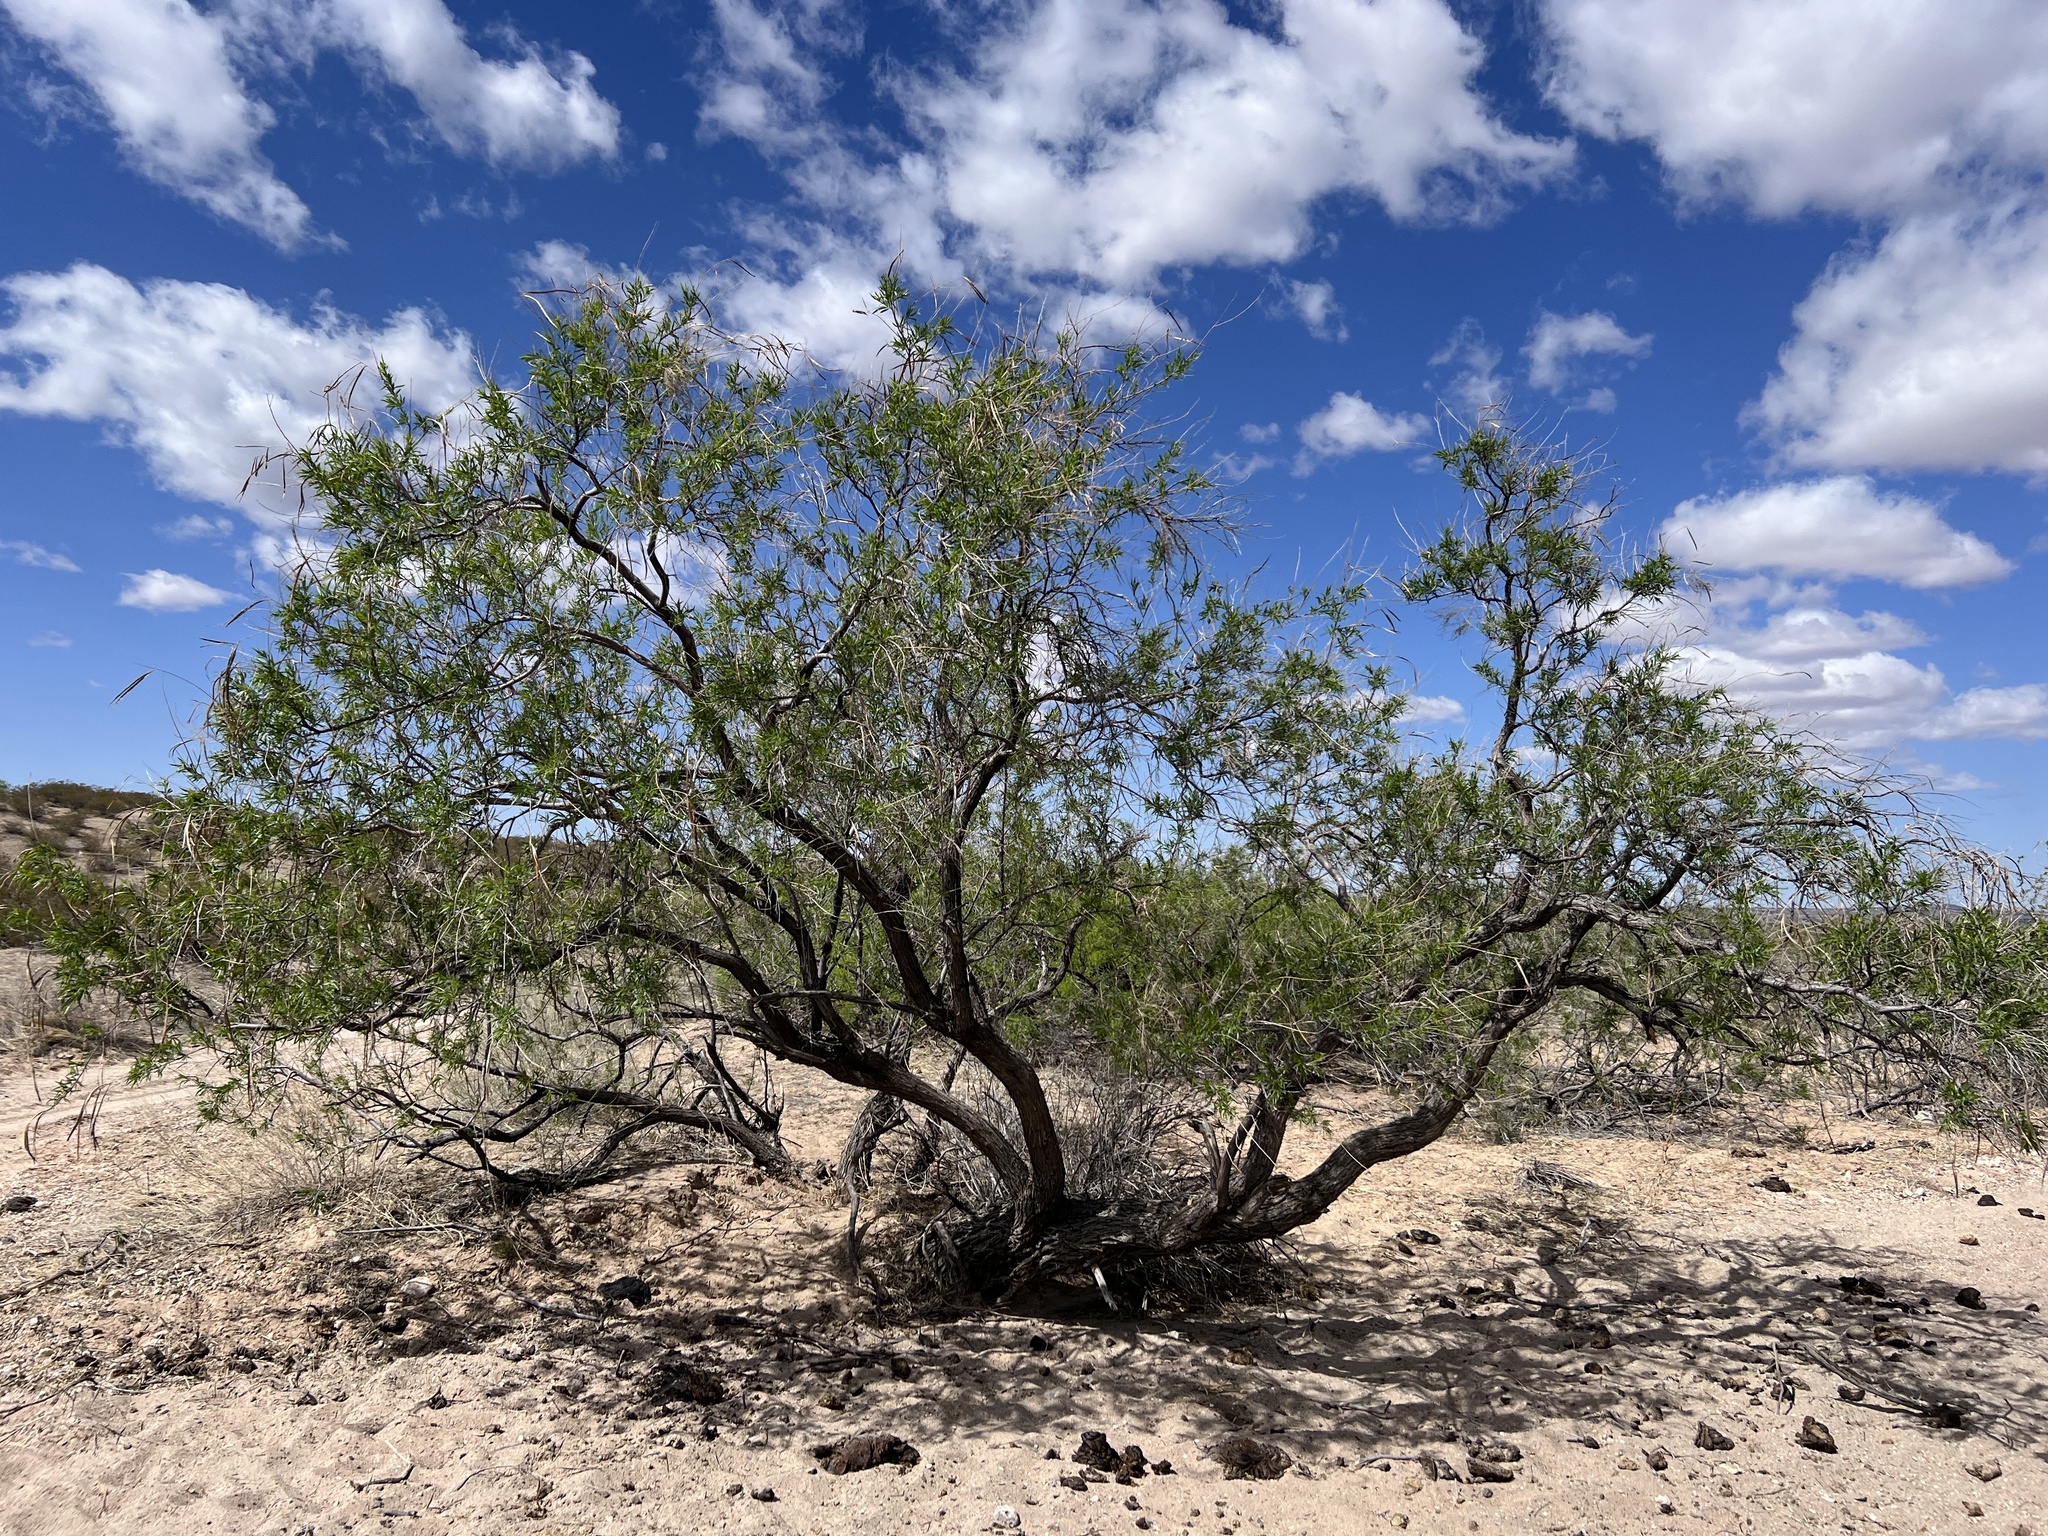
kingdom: Plantae
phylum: Tracheophyta
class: Magnoliopsida
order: Lamiales
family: Bignoniaceae
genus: Chilopsis
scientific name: Chilopsis linearis
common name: Desert-willow
